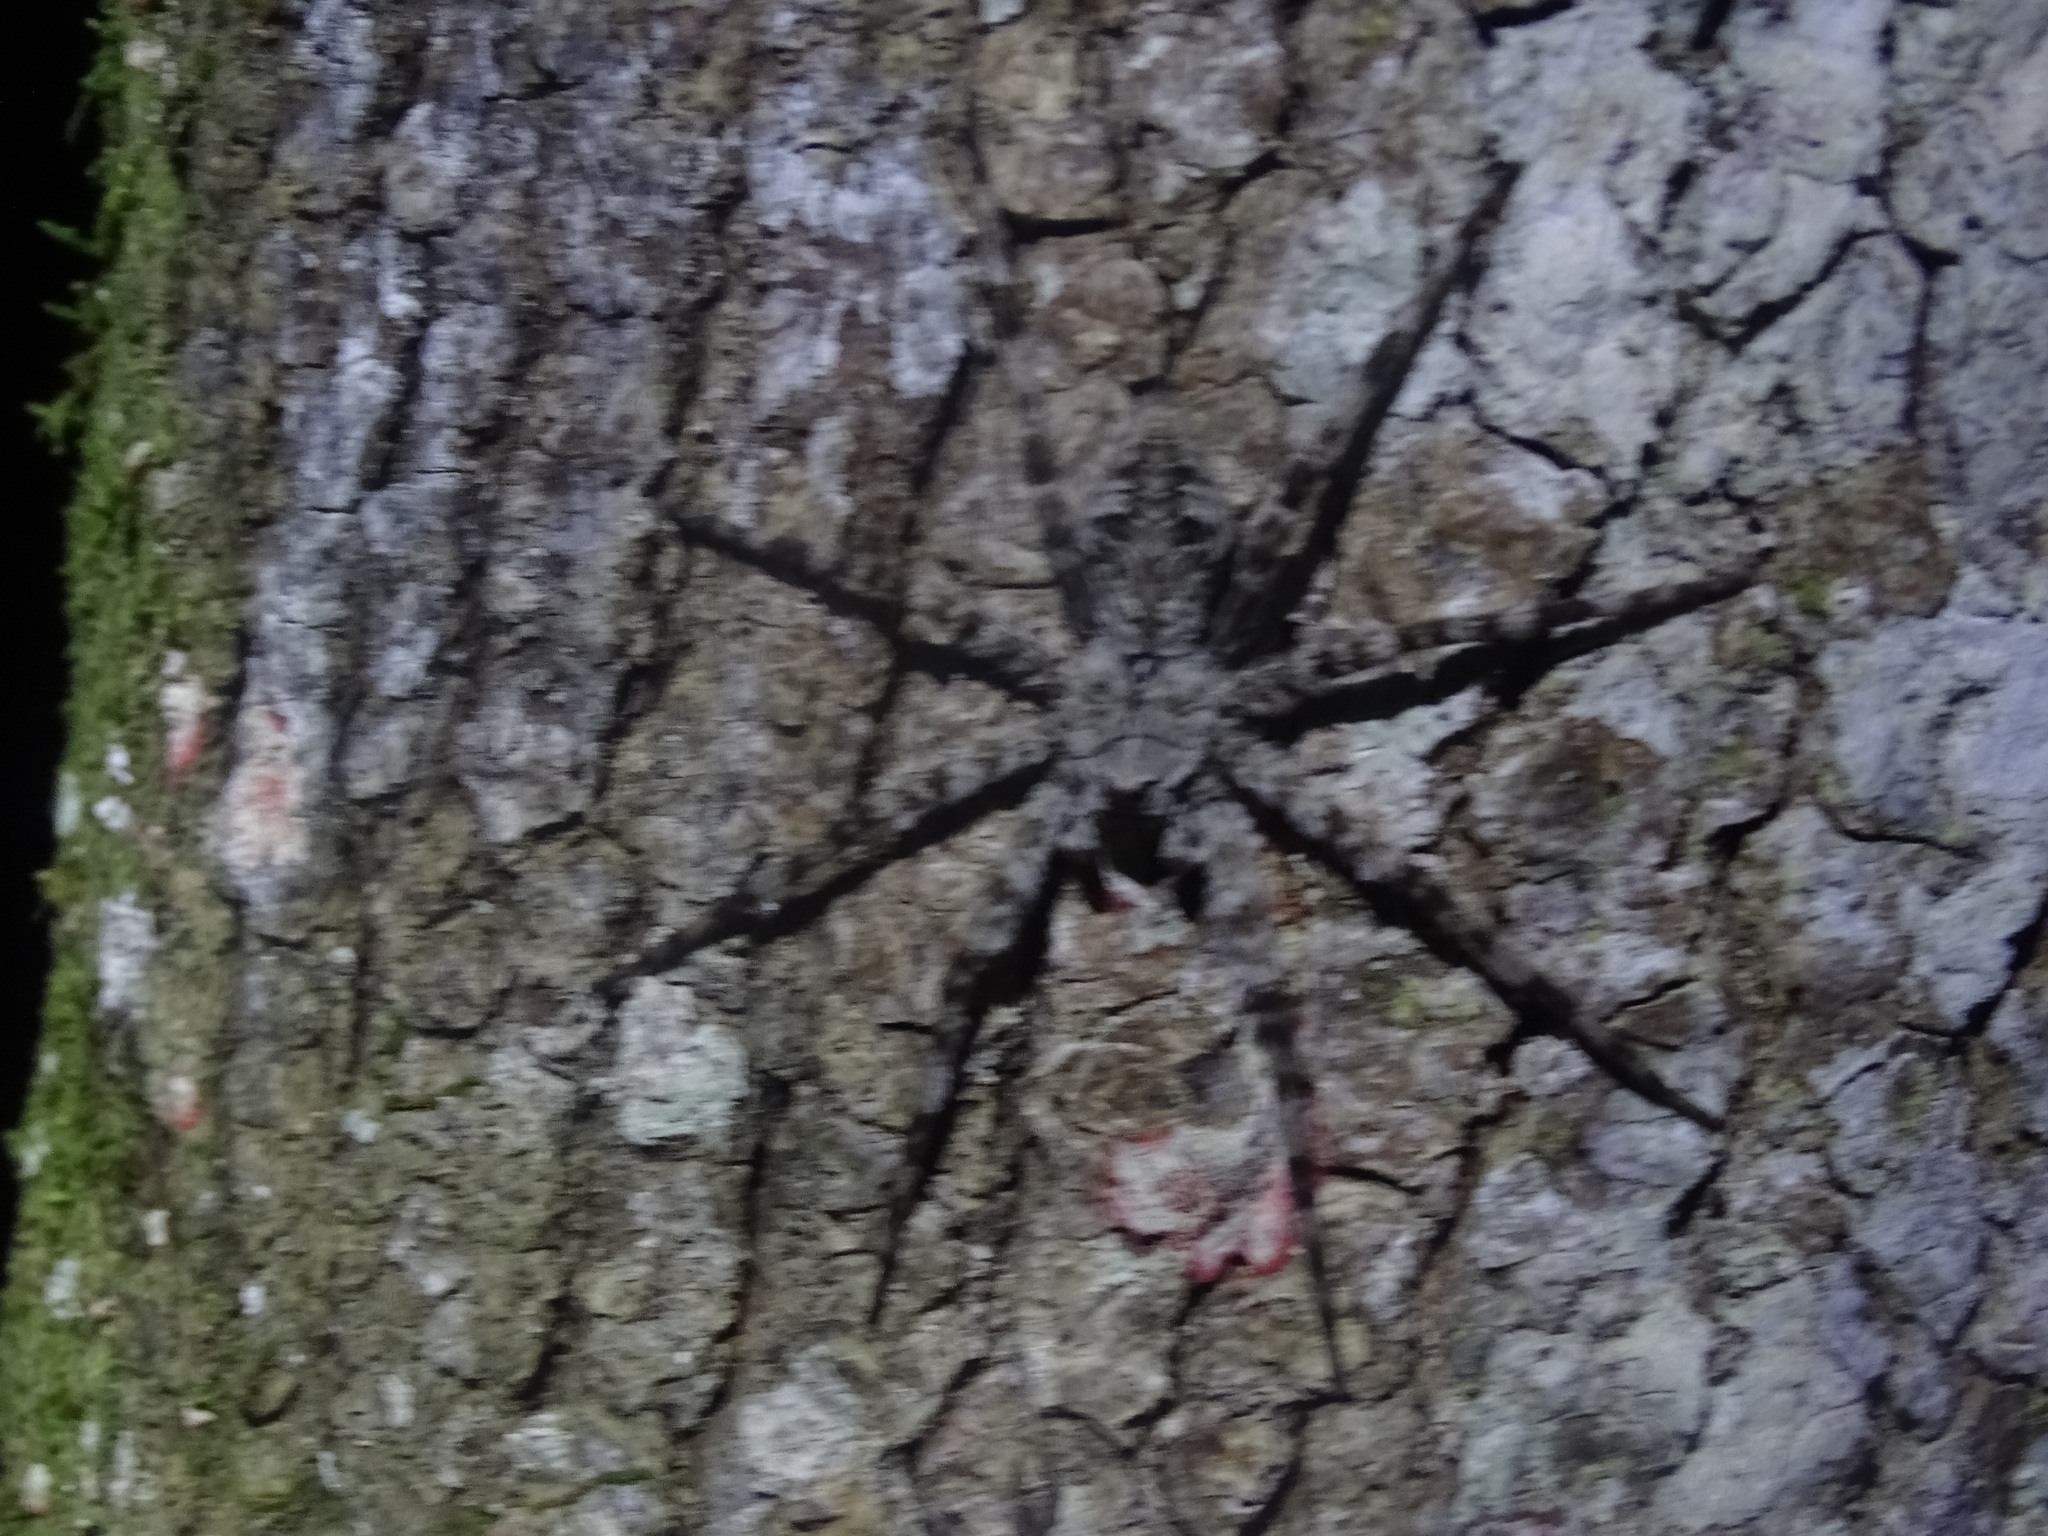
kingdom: Animalia
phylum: Arthropoda
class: Arachnida
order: Araneae
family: Pisauridae
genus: Dolomedes
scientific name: Dolomedes albineus
